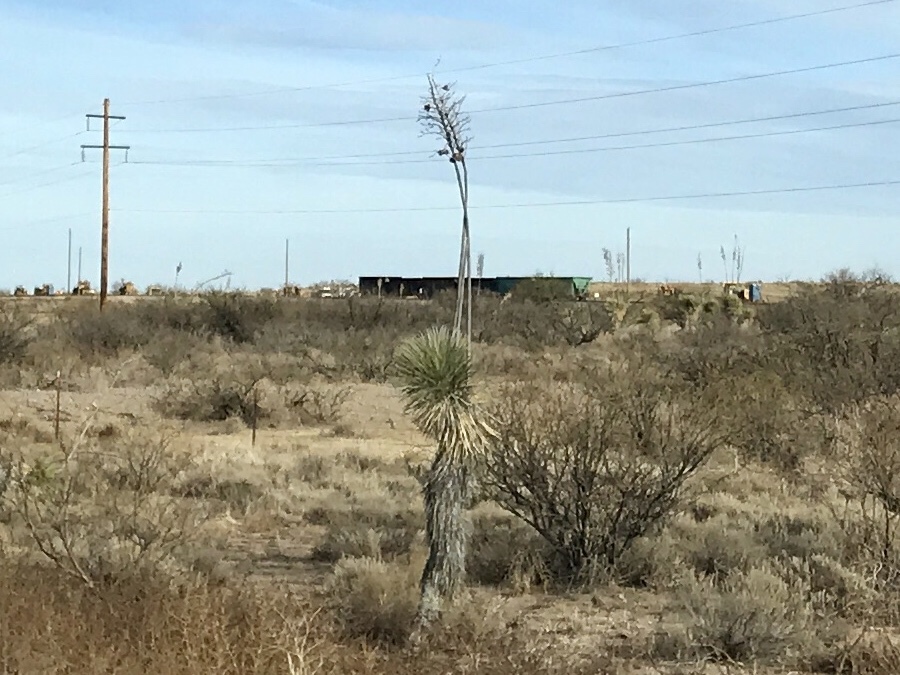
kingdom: Plantae
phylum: Tracheophyta
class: Liliopsida
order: Asparagales
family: Asparagaceae
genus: Yucca
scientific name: Yucca elata
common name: Palmella
